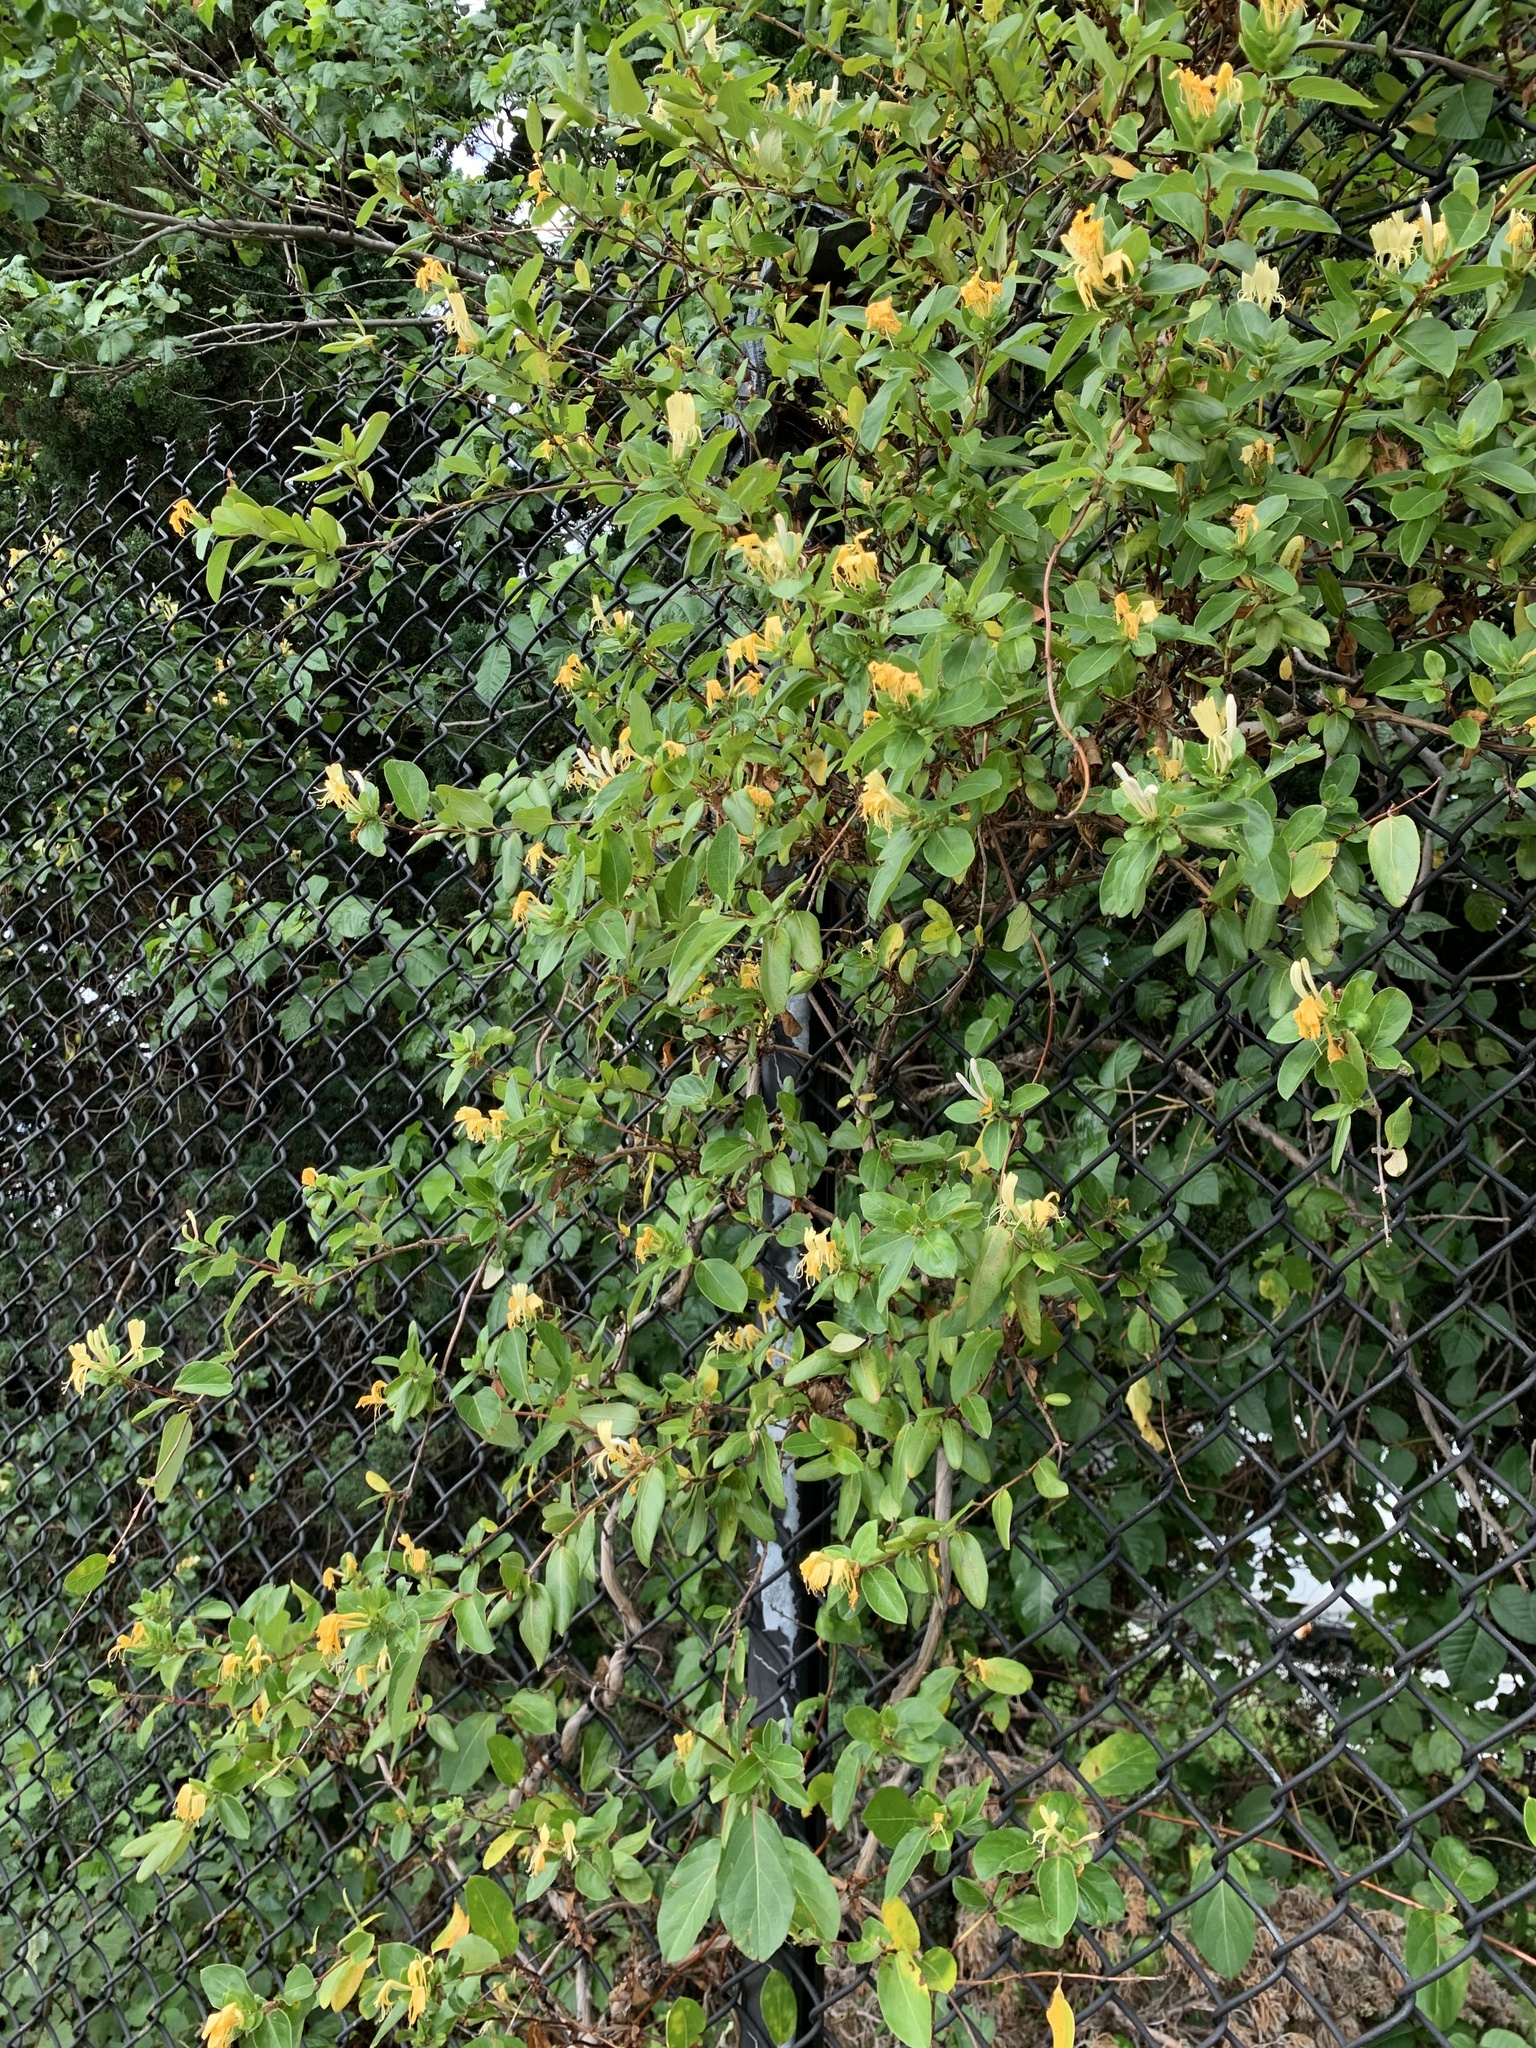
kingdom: Plantae
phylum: Tracheophyta
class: Magnoliopsida
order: Dipsacales
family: Caprifoliaceae
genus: Lonicera
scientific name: Lonicera japonica
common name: Japanese honeysuckle
